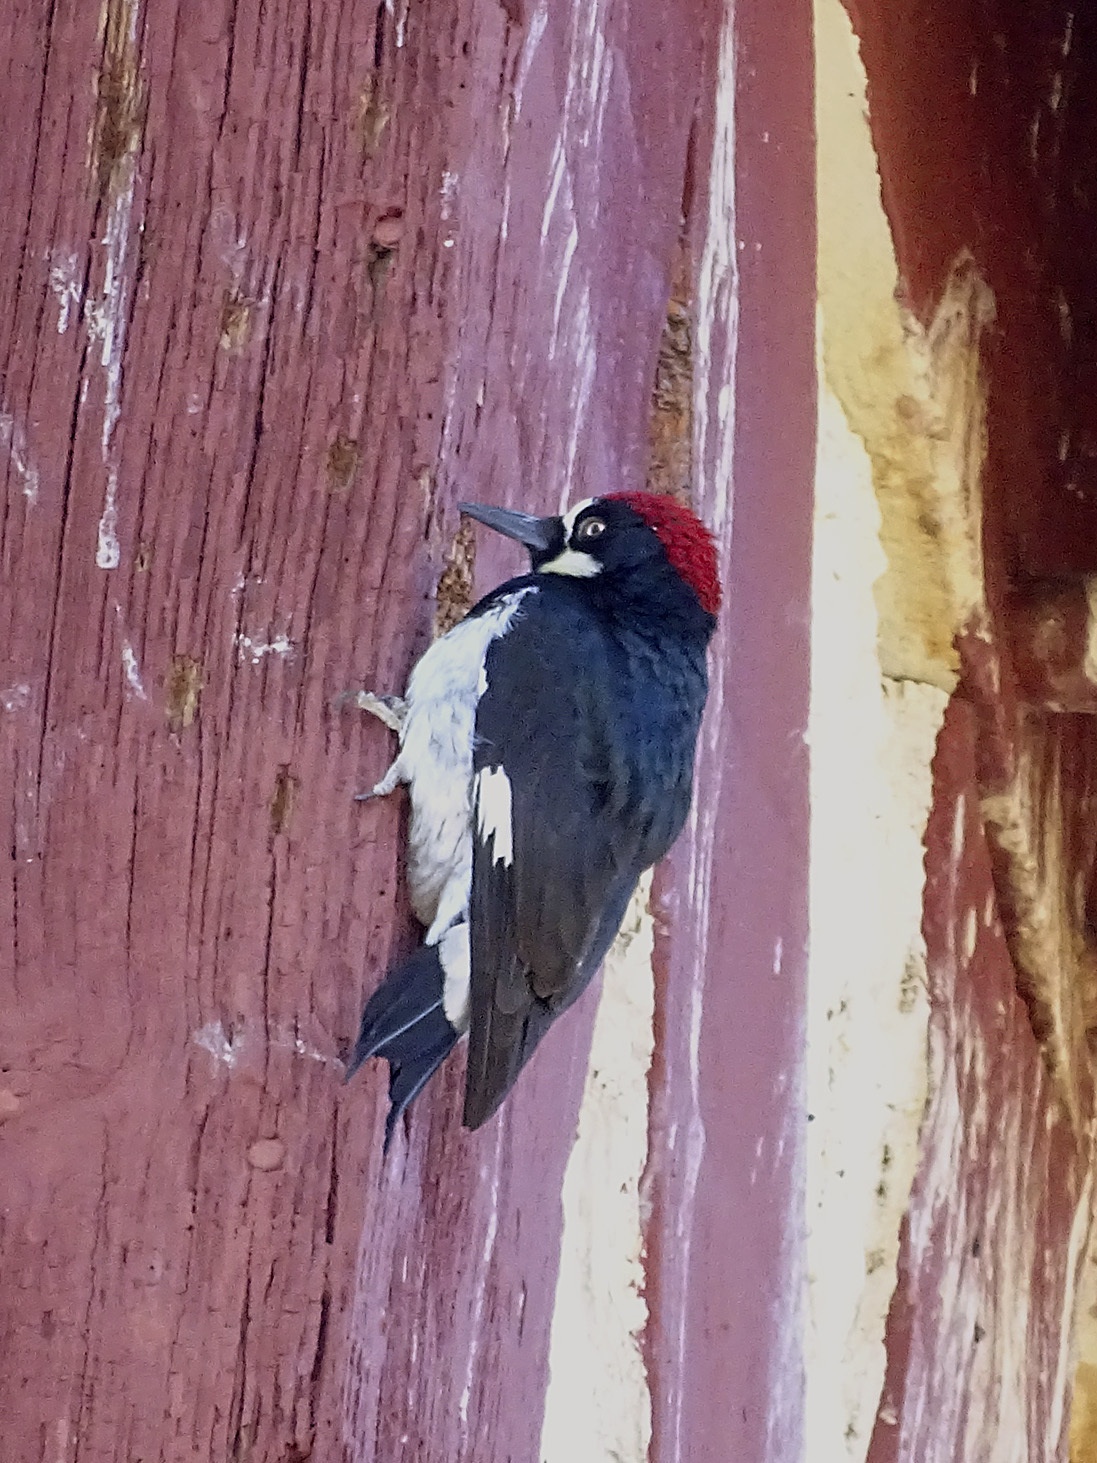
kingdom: Animalia
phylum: Chordata
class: Aves
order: Piciformes
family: Picidae
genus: Melanerpes
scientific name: Melanerpes formicivorus
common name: Acorn woodpecker
